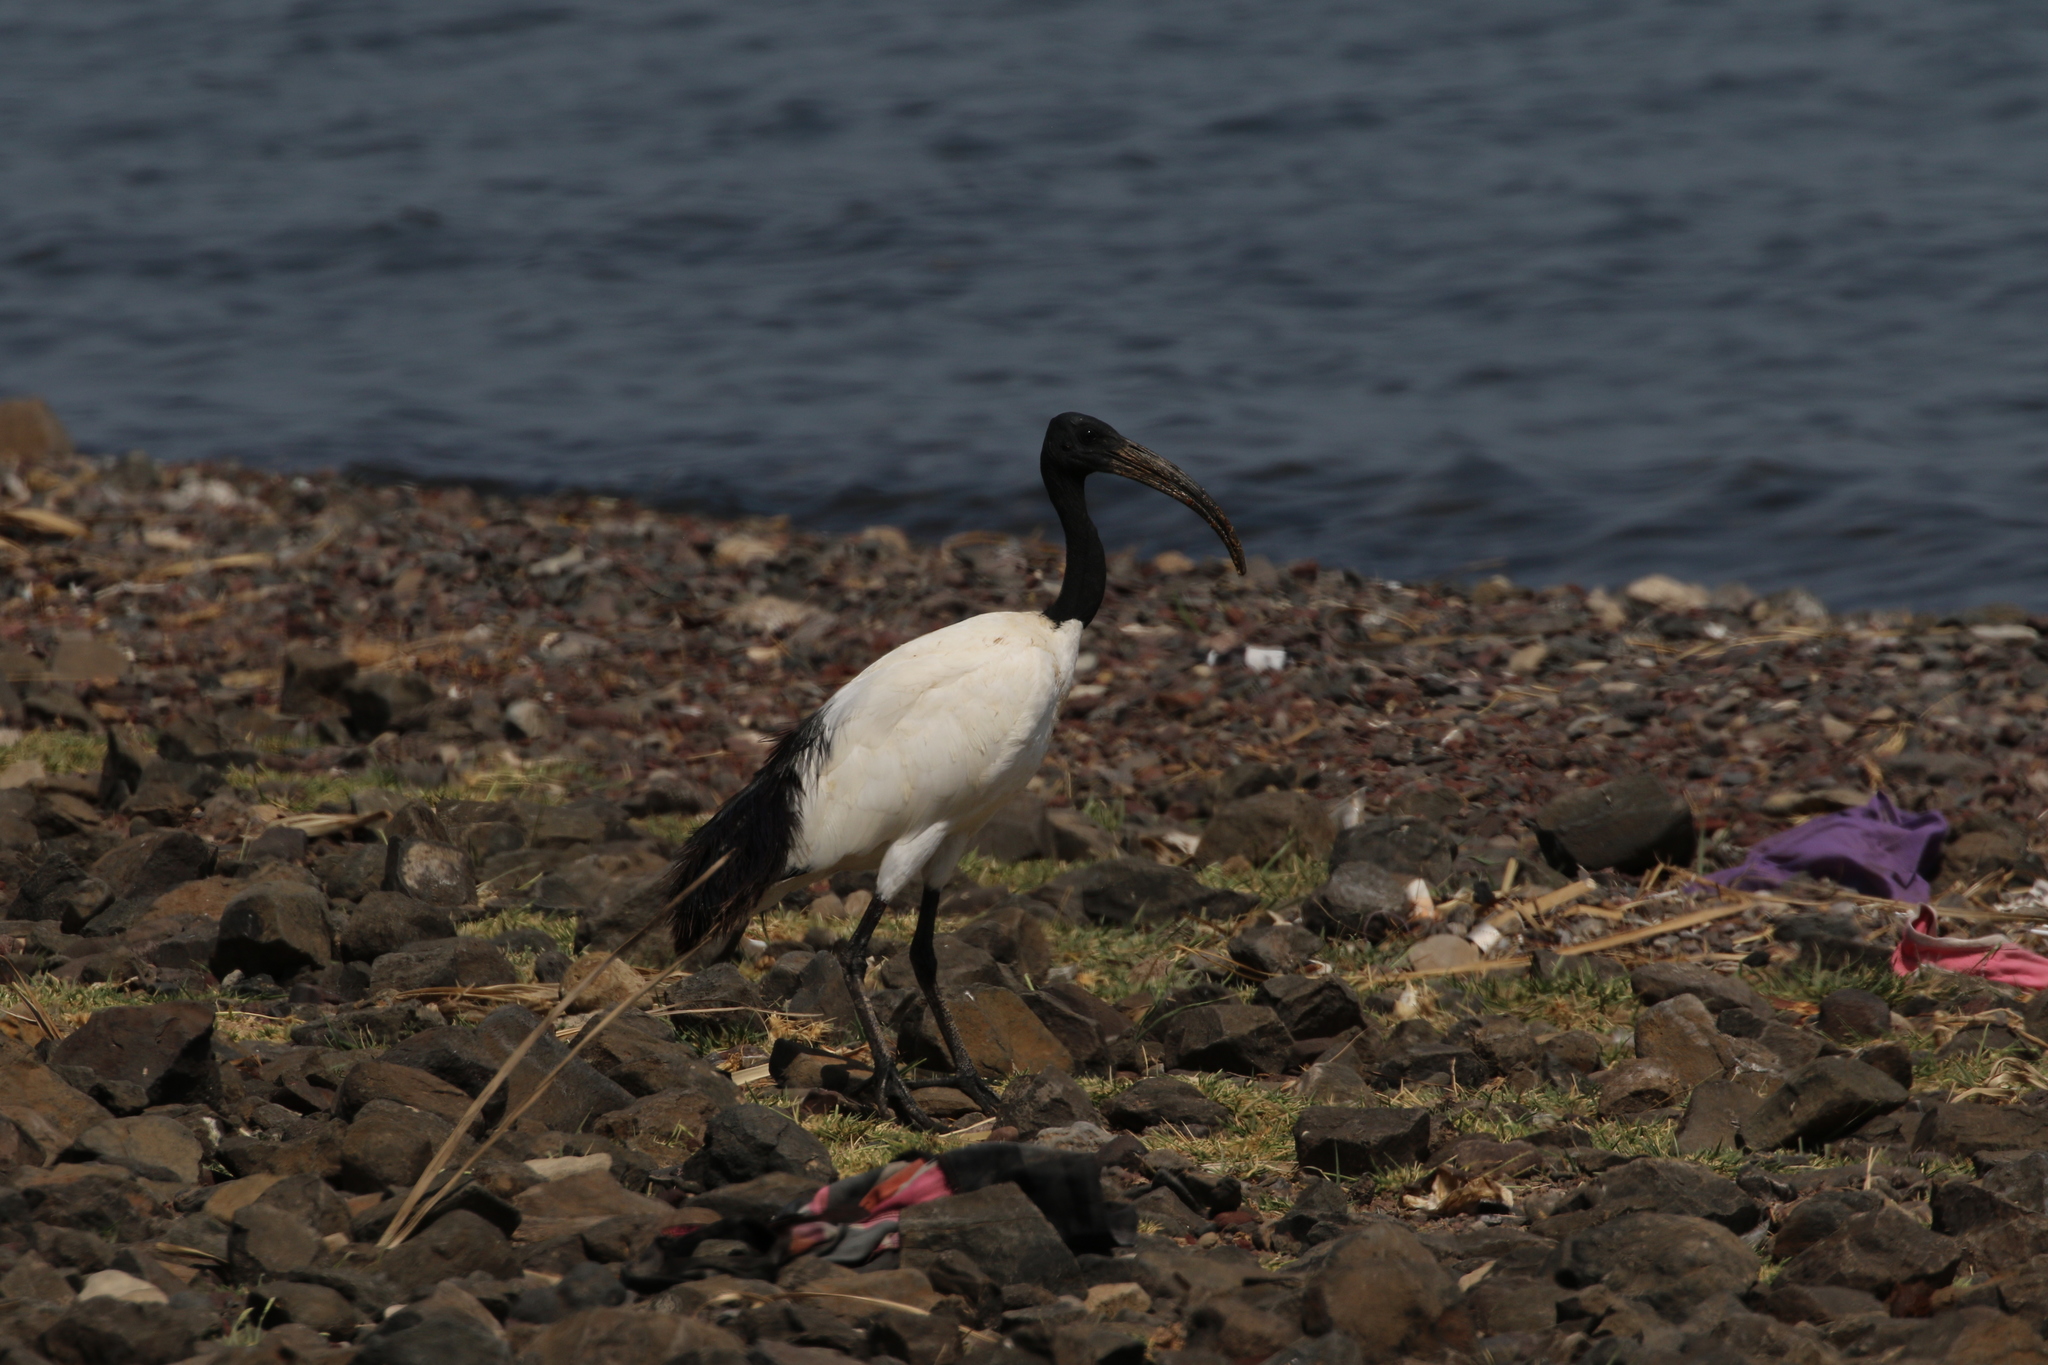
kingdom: Animalia
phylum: Chordata
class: Aves
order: Pelecaniformes
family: Threskiornithidae
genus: Threskiornis
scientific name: Threskiornis aethiopicus
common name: Sacred ibis
